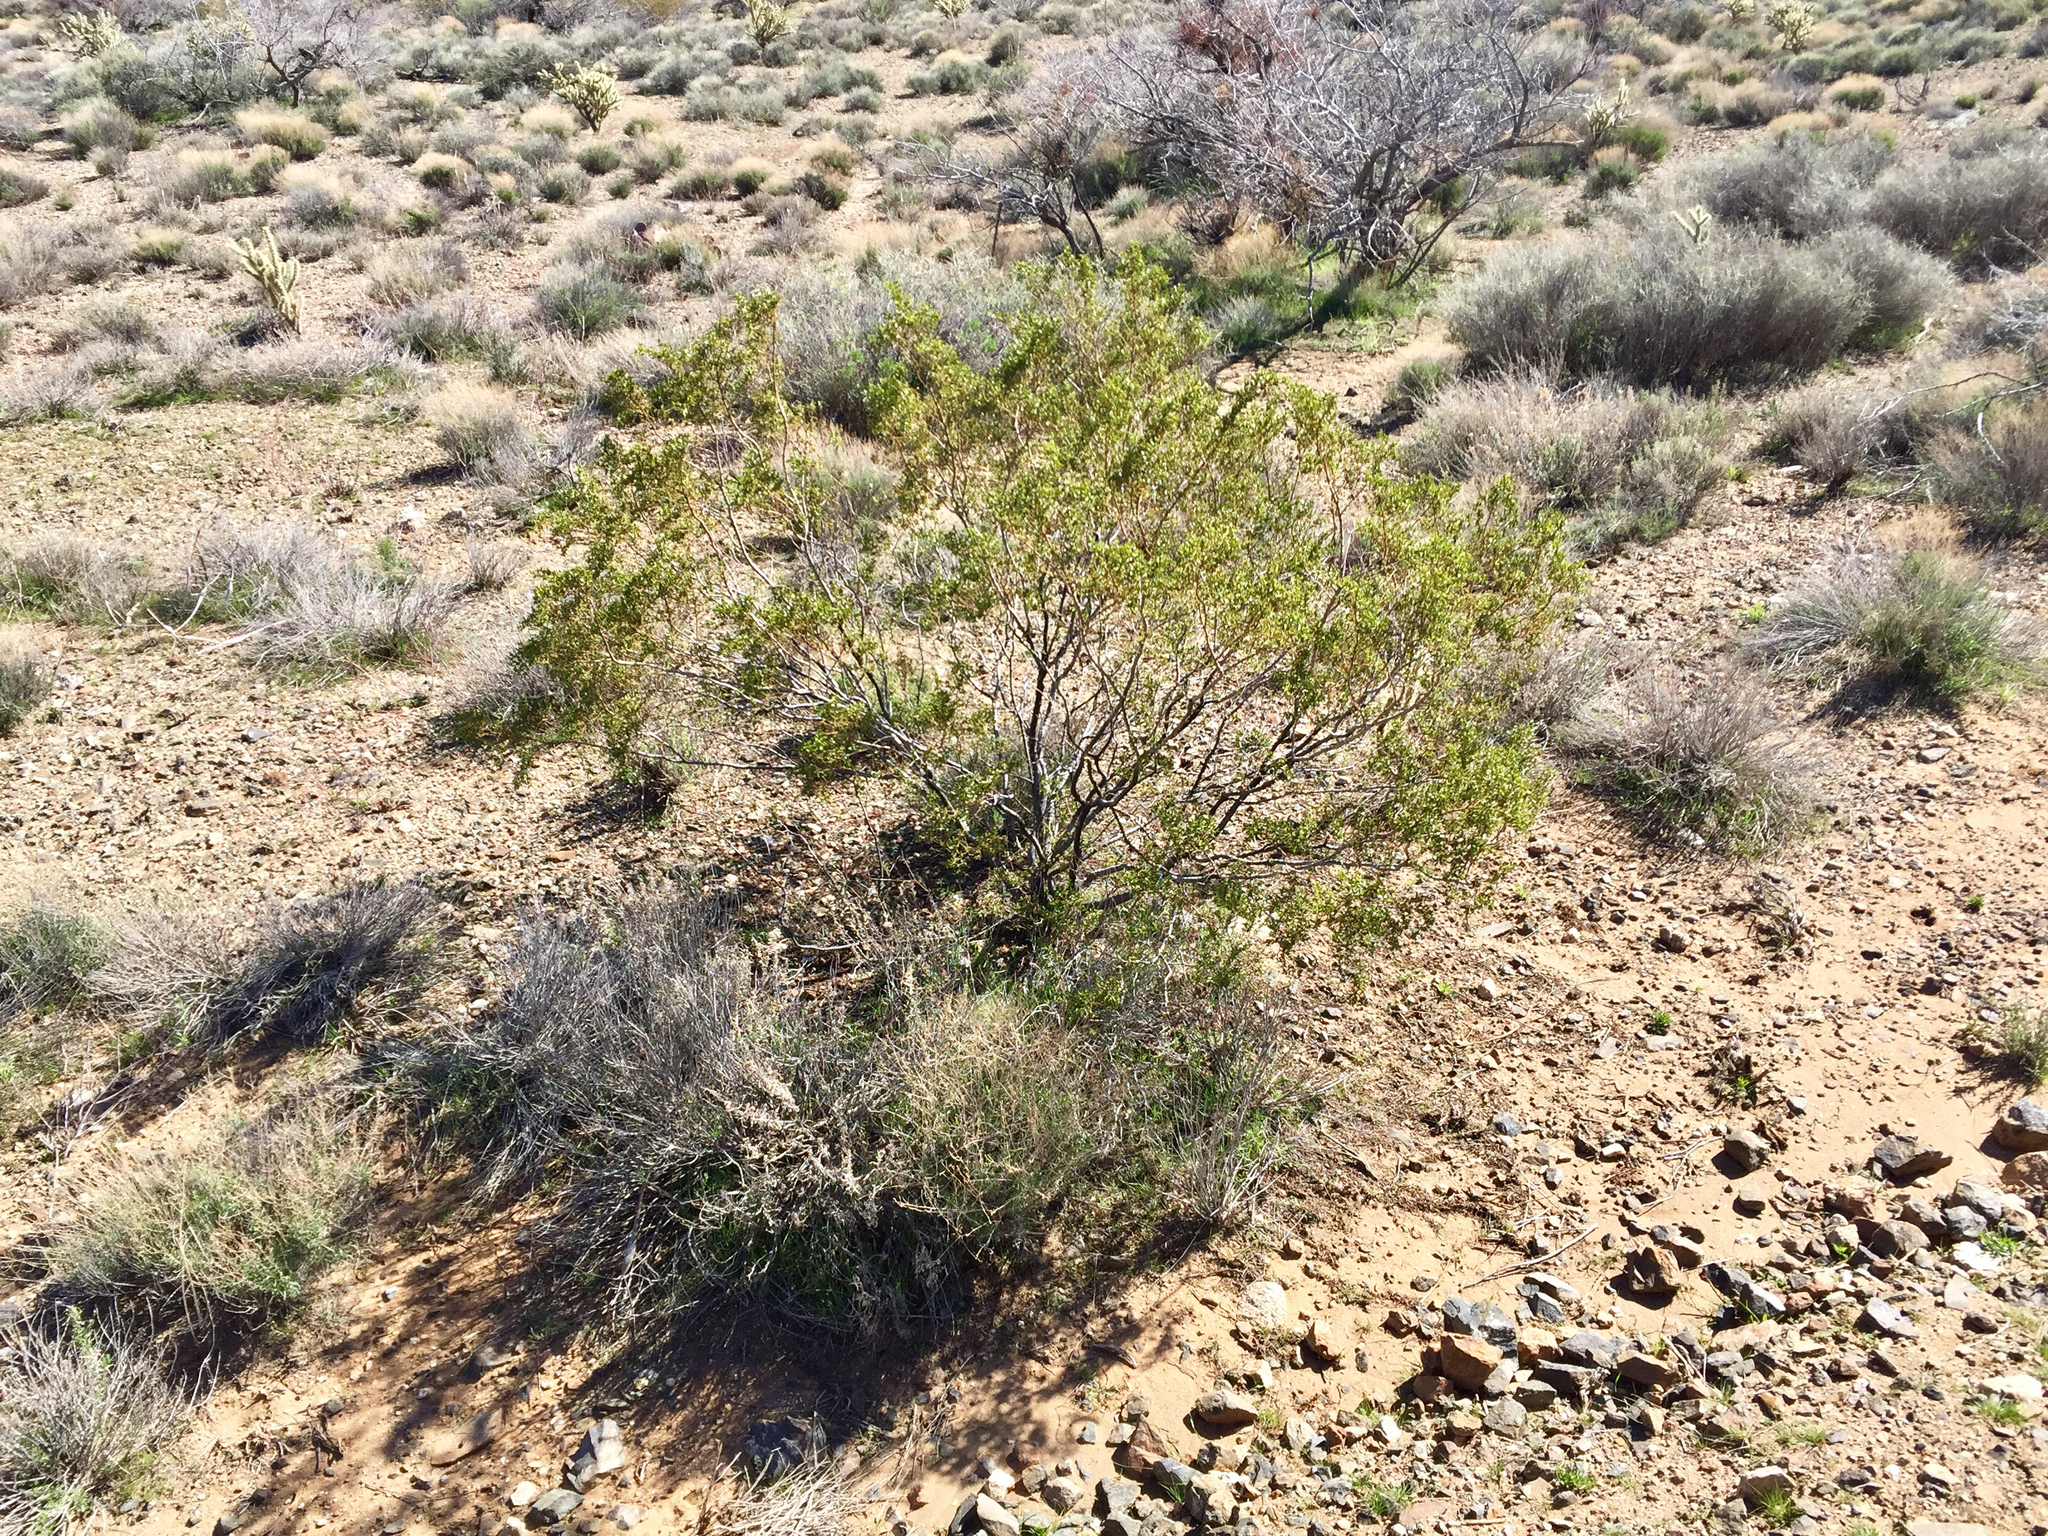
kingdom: Plantae
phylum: Tracheophyta
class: Magnoliopsida
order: Zygophyllales
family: Zygophyllaceae
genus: Larrea
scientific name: Larrea tridentata
